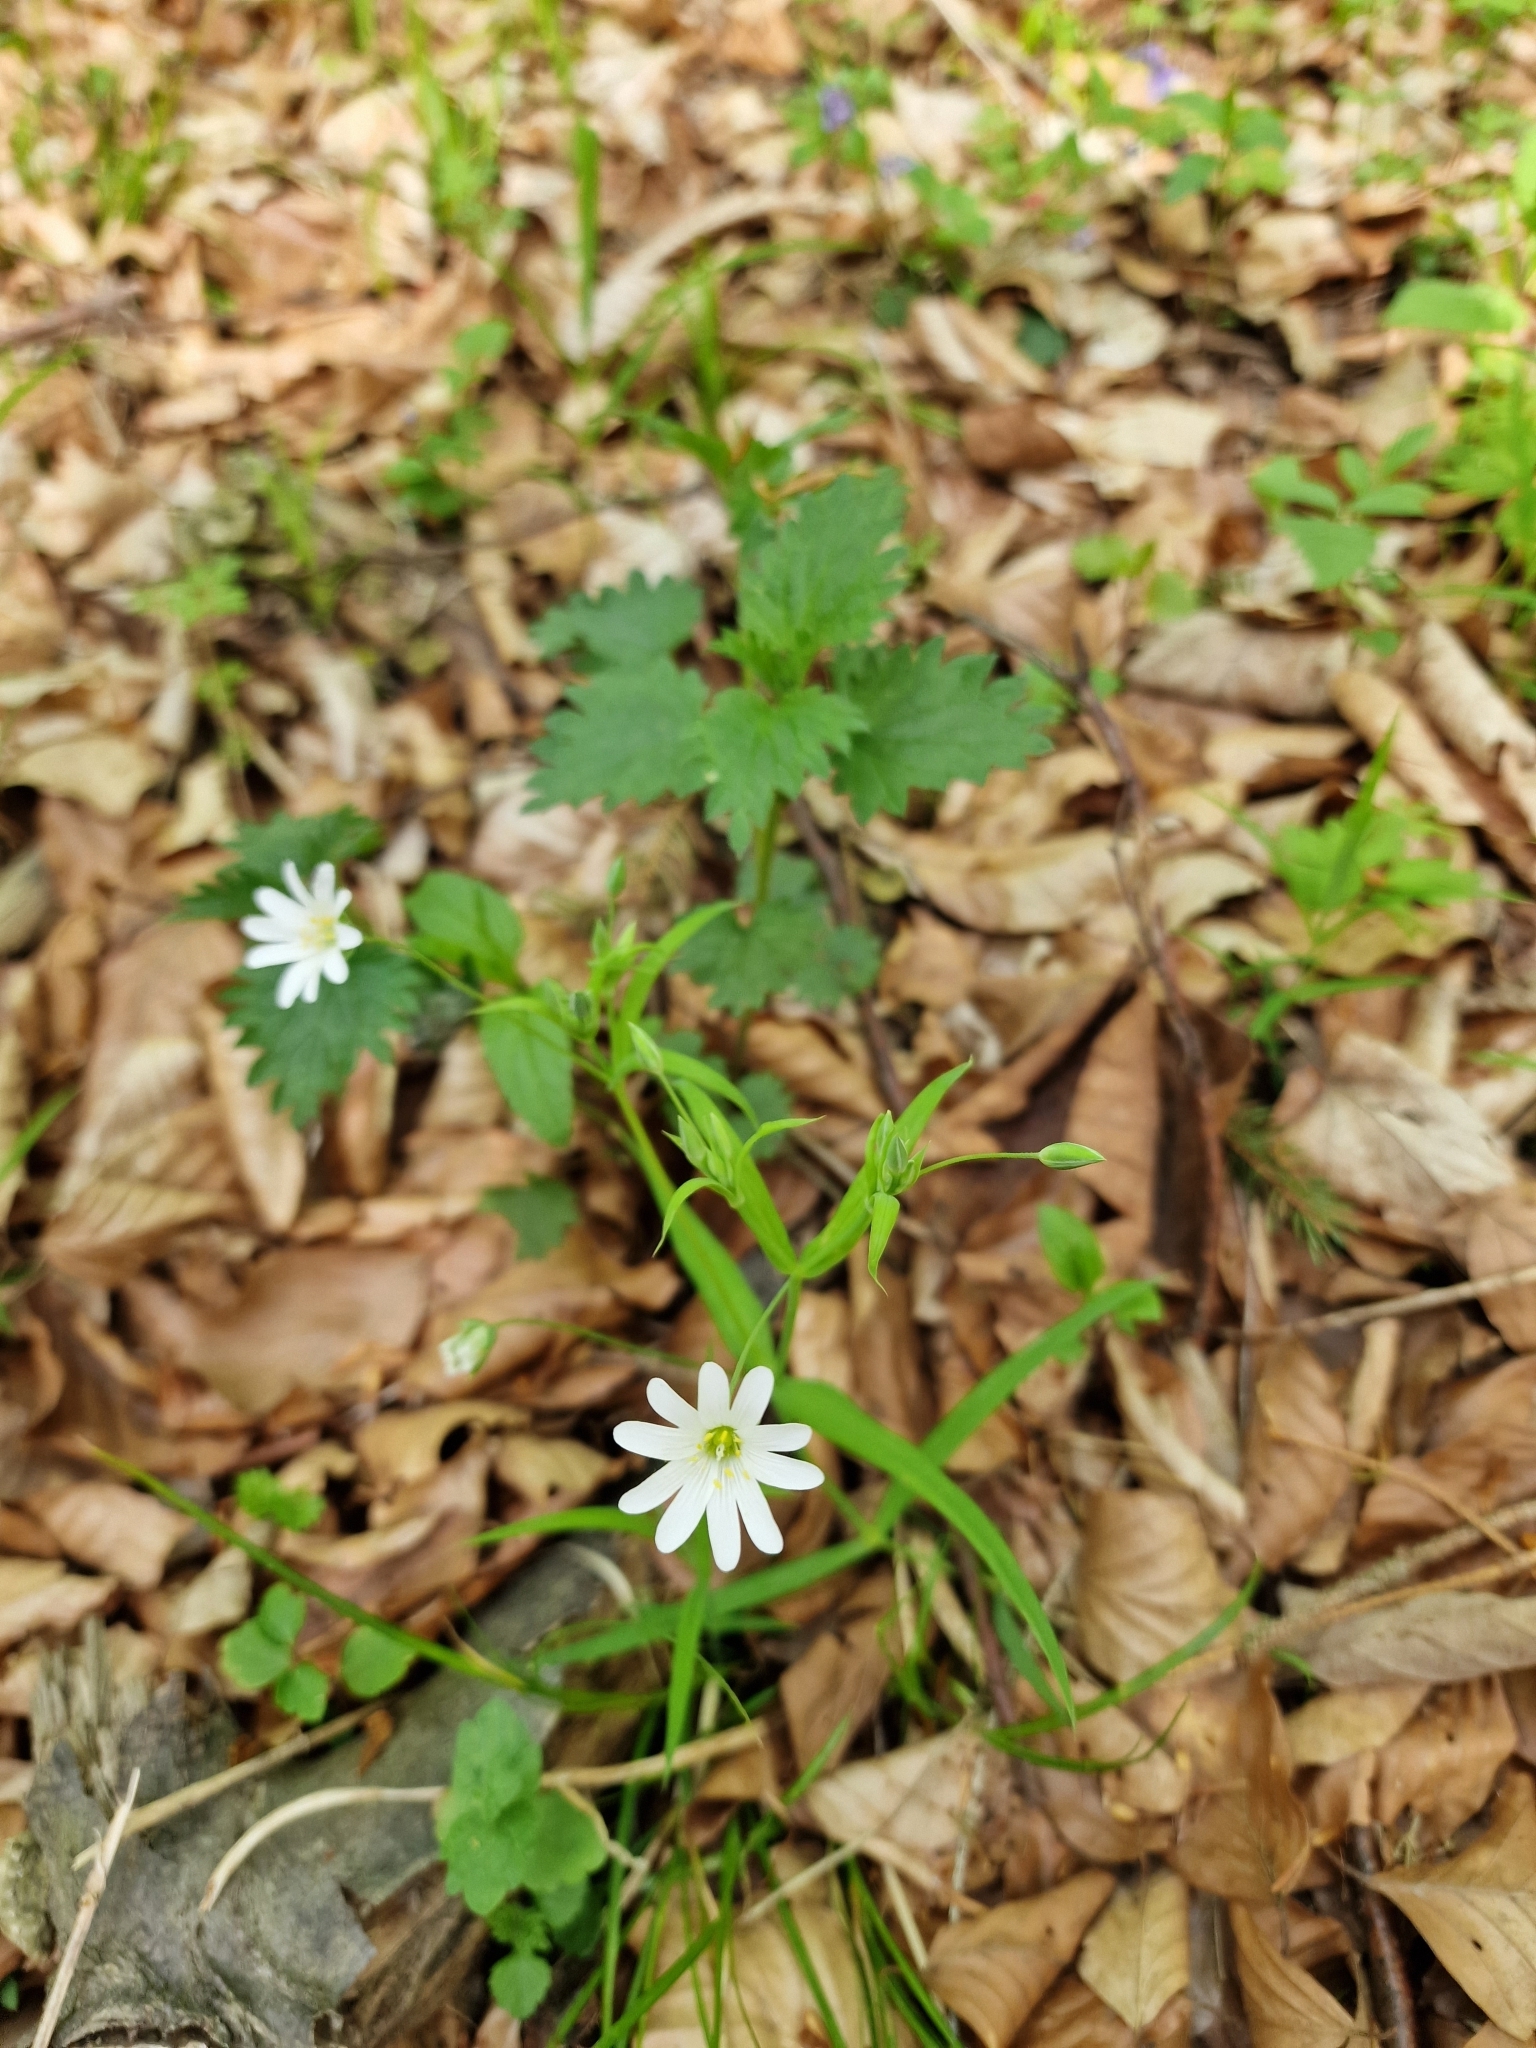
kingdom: Plantae
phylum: Tracheophyta
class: Magnoliopsida
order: Caryophyllales
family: Caryophyllaceae
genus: Rabelera
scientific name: Rabelera holostea
